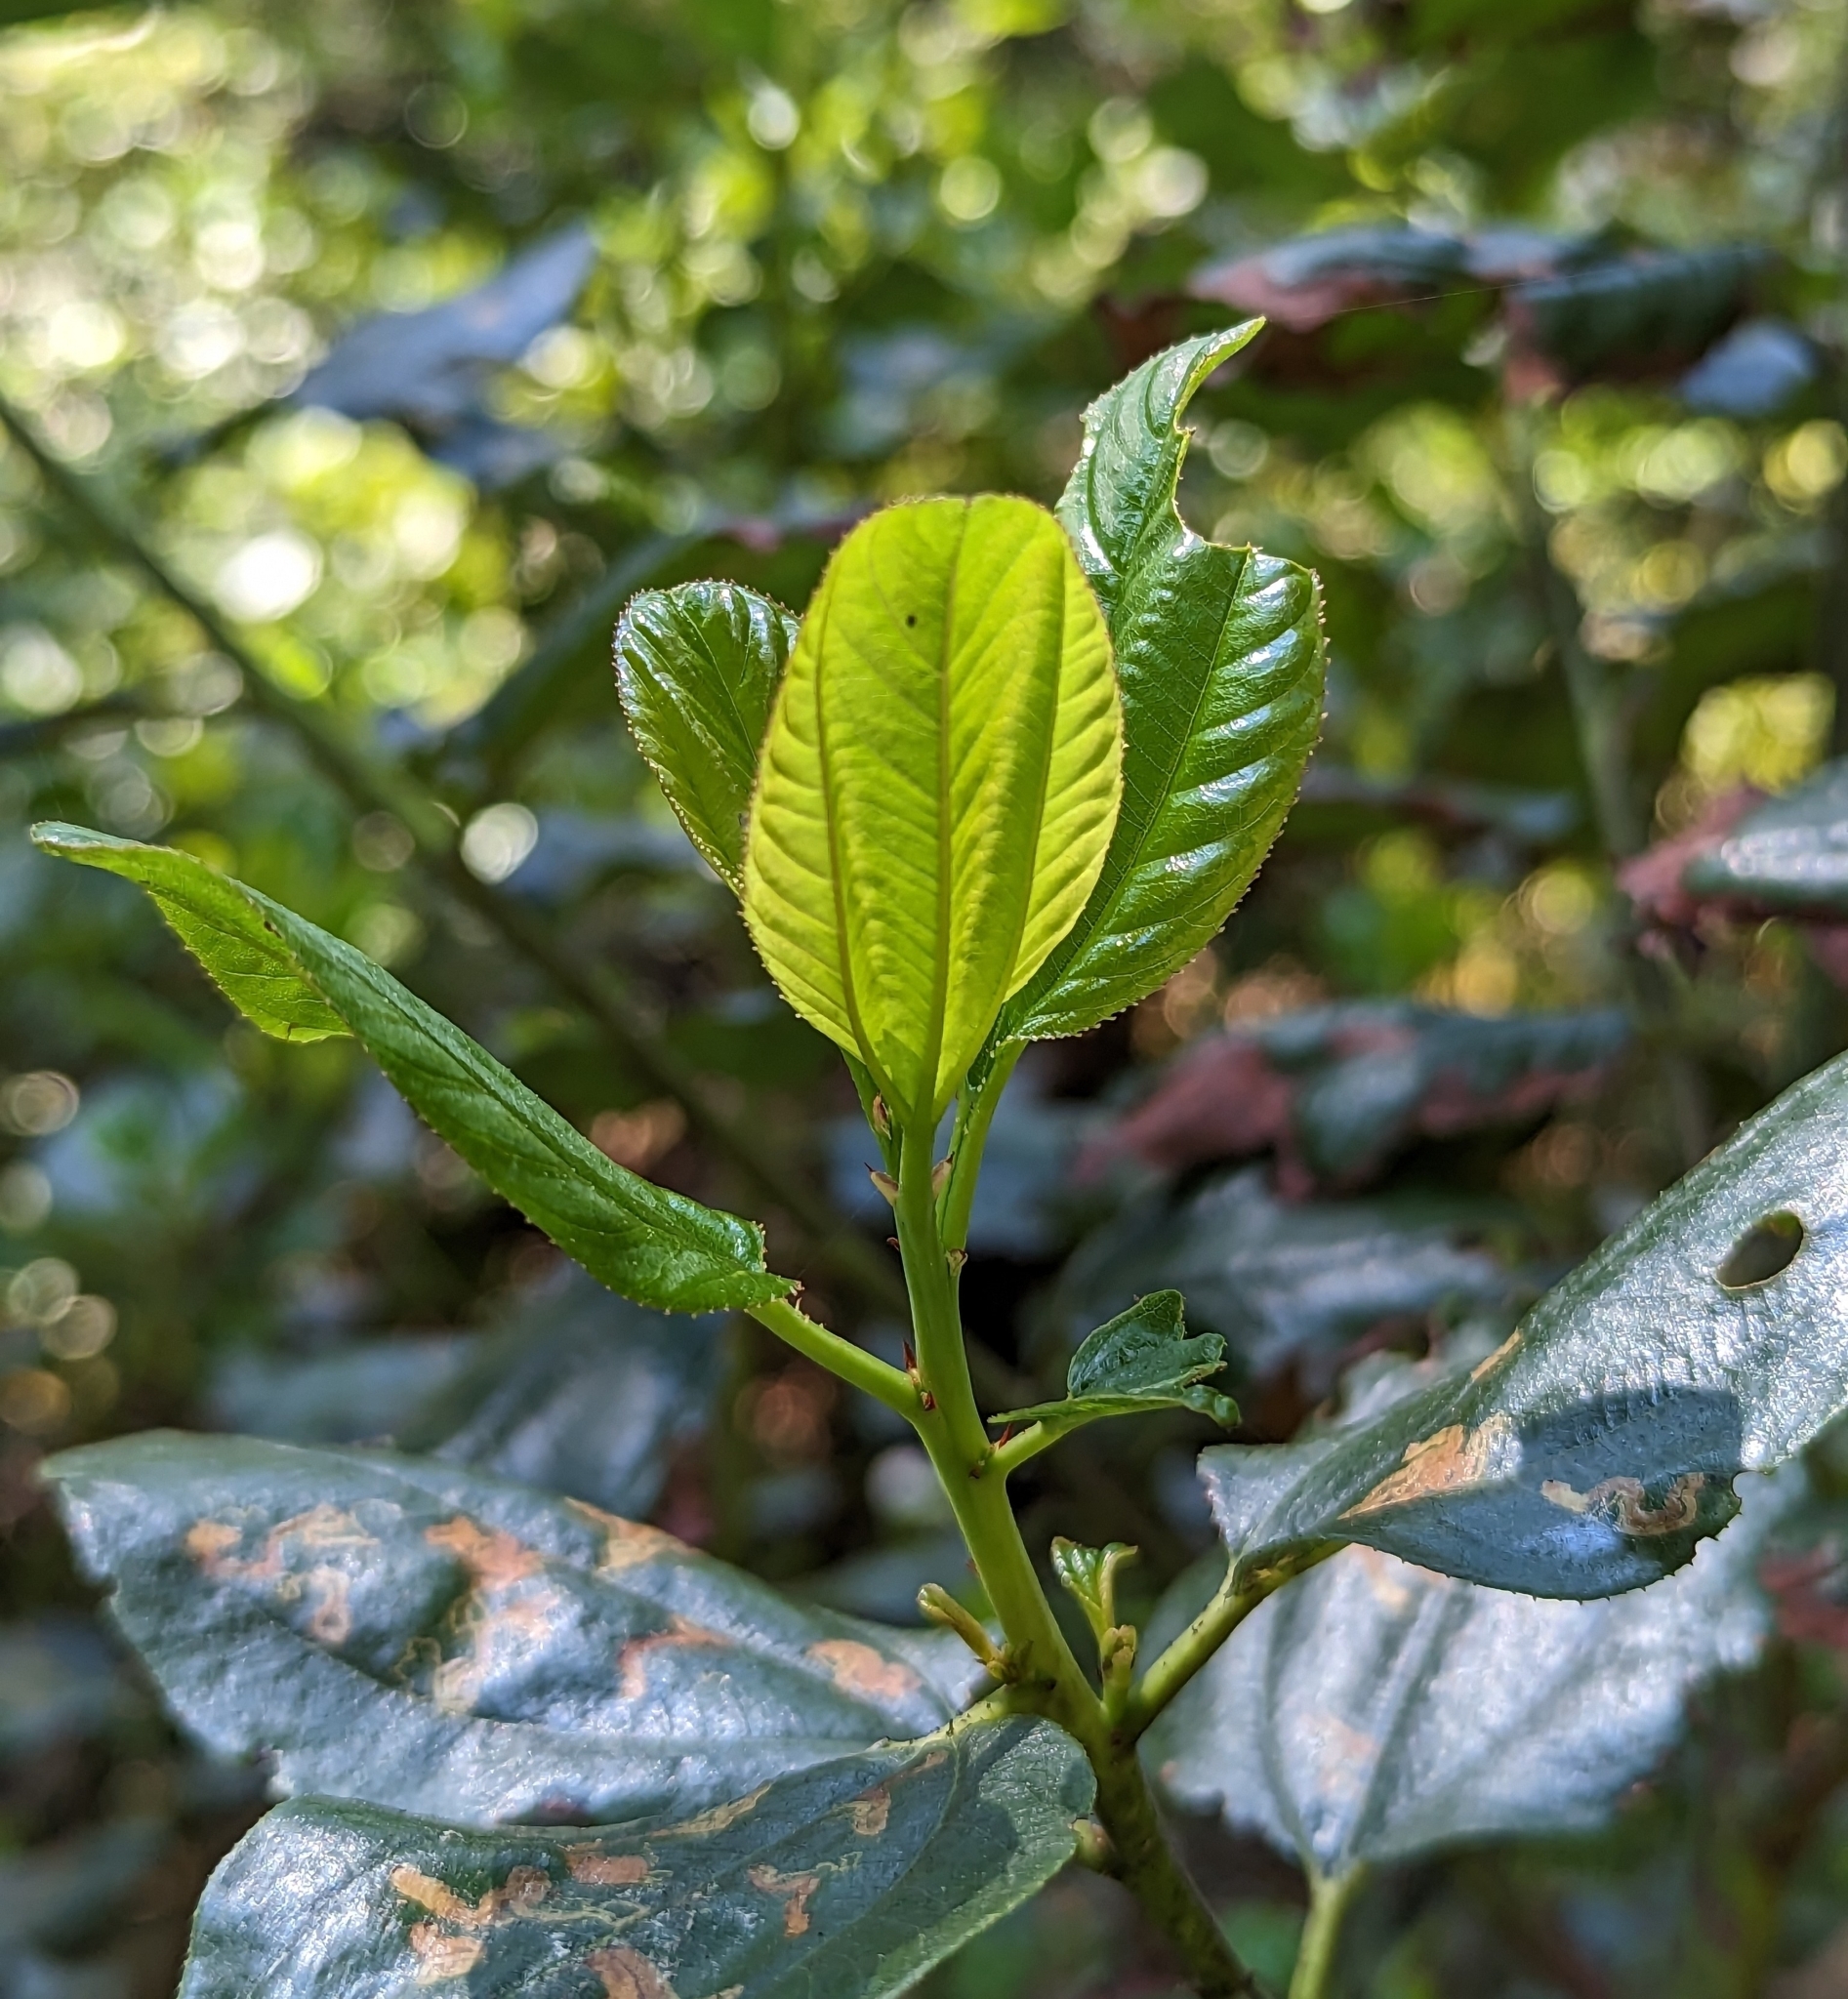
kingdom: Plantae
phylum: Tracheophyta
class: Magnoliopsida
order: Rosales
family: Rhamnaceae
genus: Ceanothus
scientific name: Ceanothus velutinus
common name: Snowbrush
